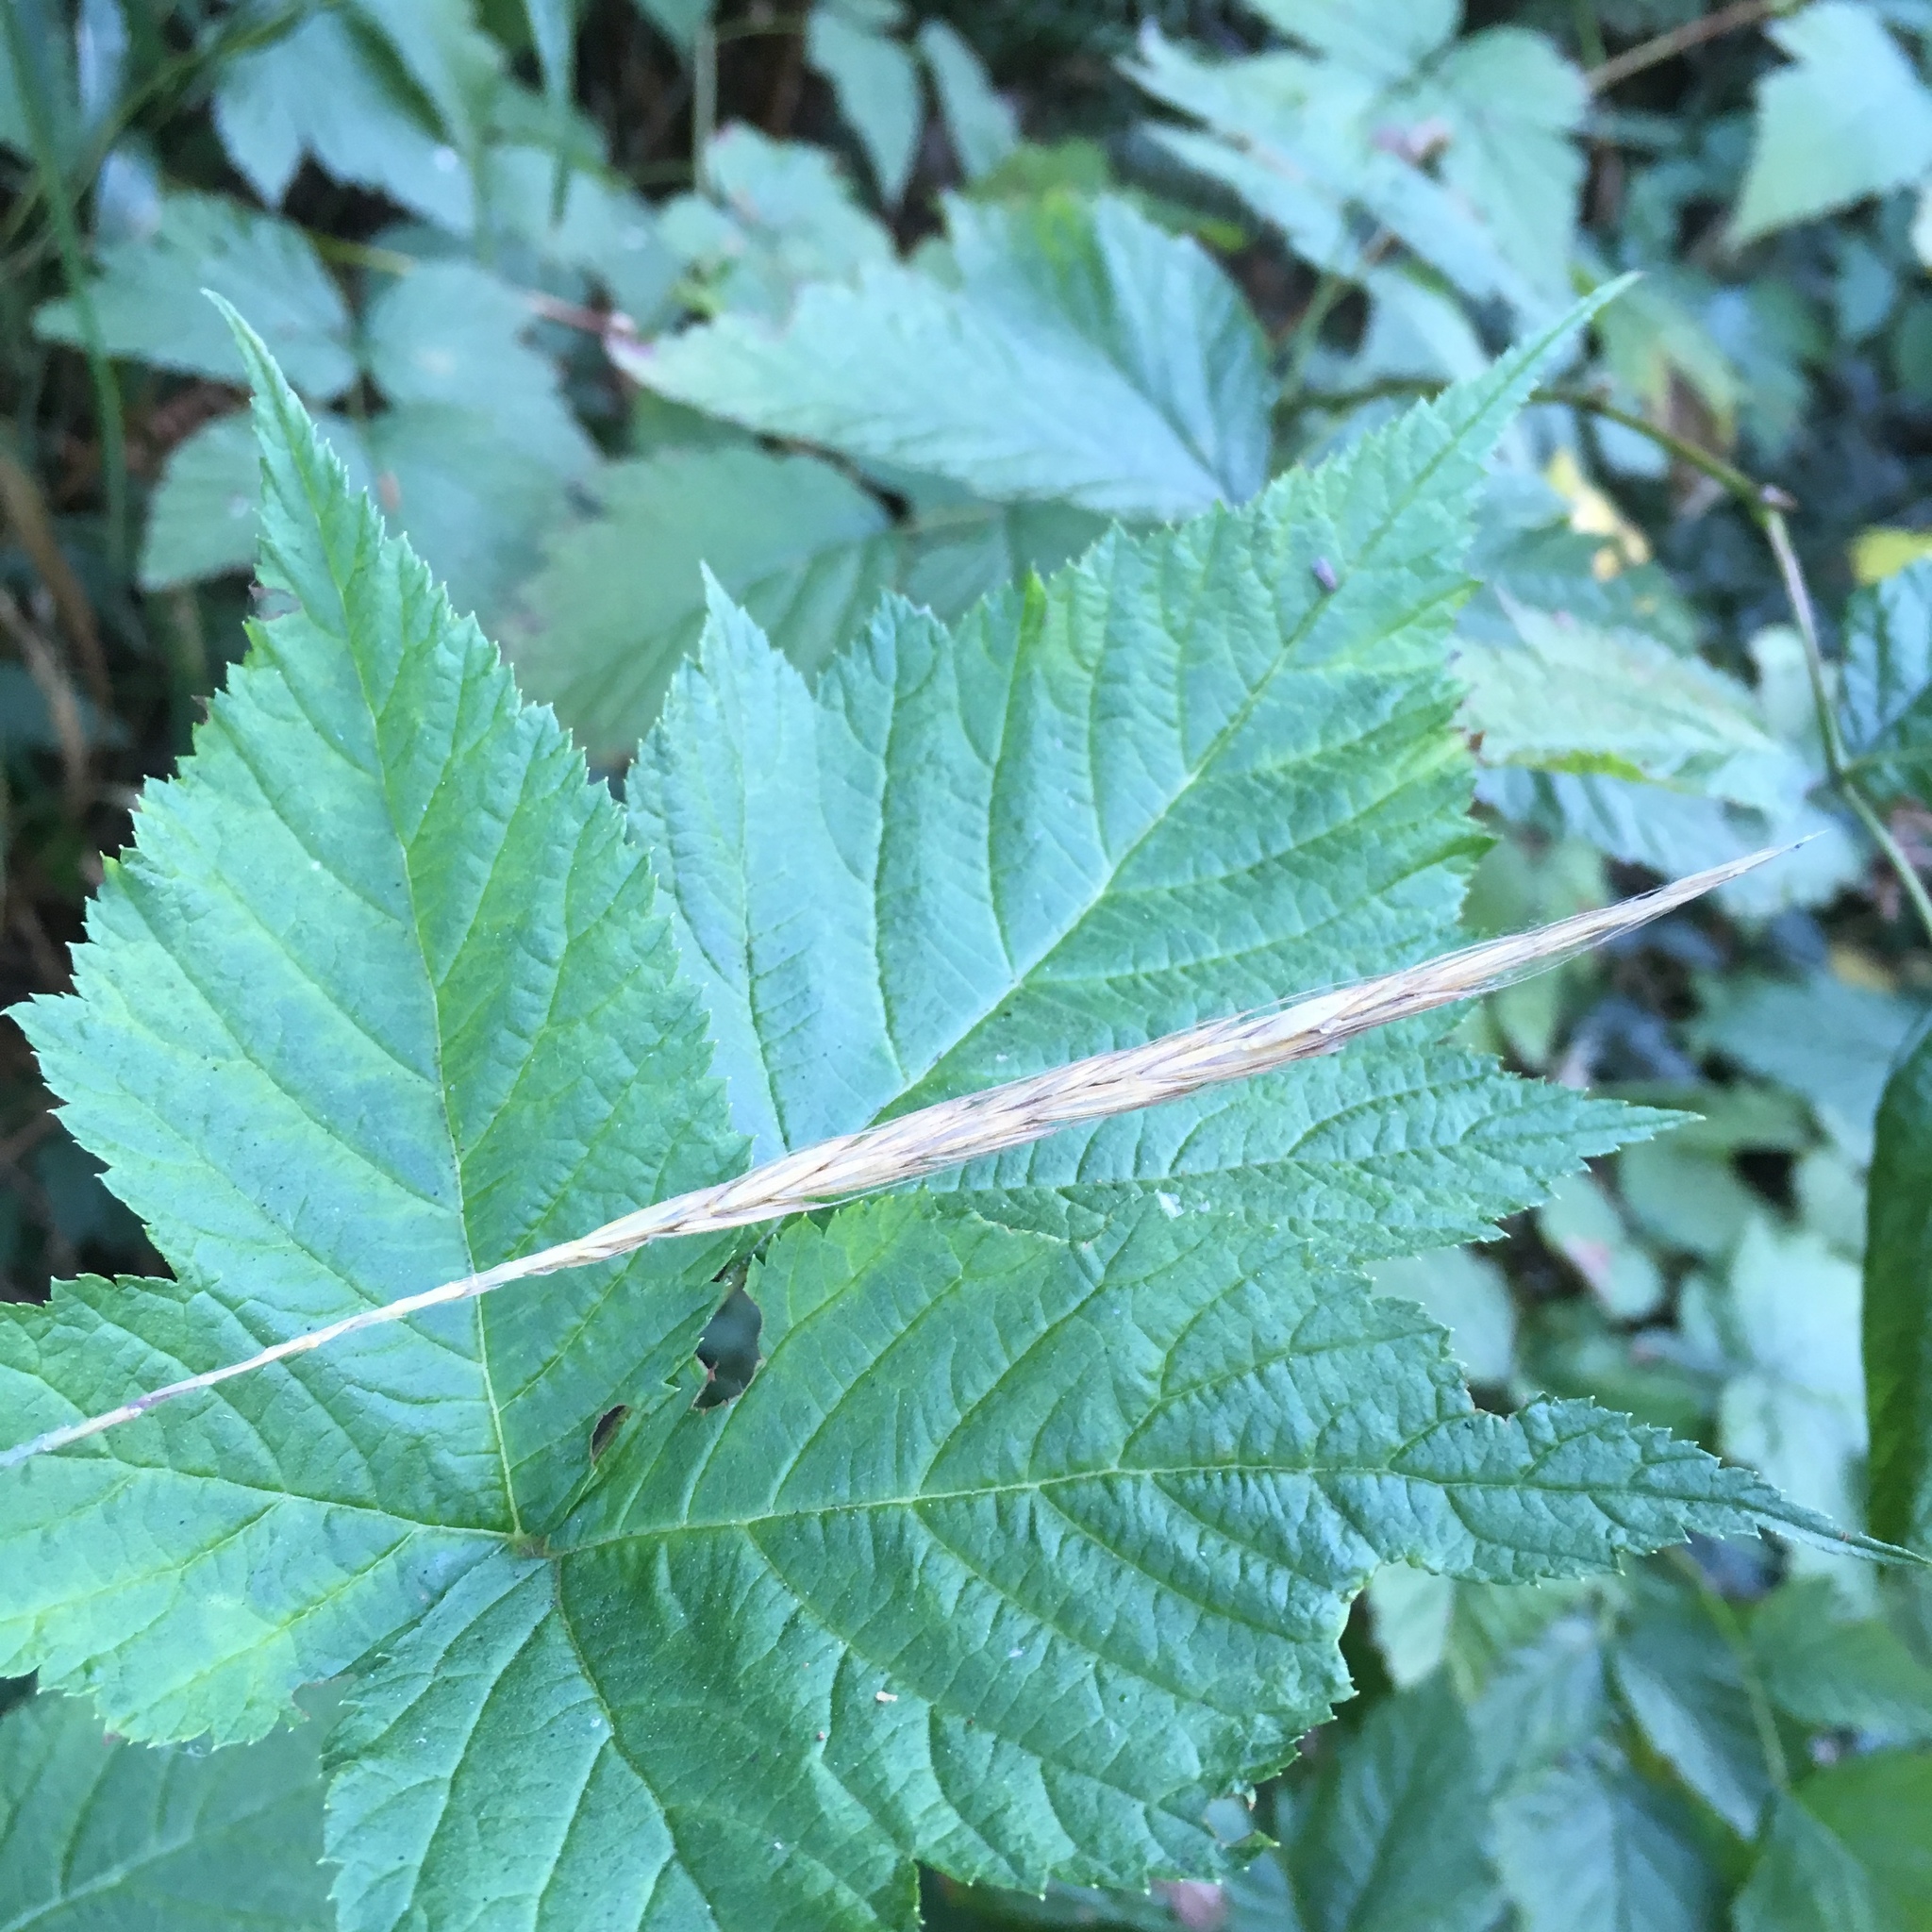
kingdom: Plantae
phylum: Tracheophyta
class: Liliopsida
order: Poales
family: Poaceae
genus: Elymus
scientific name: Elymus glaucus
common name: Blue wild rye
